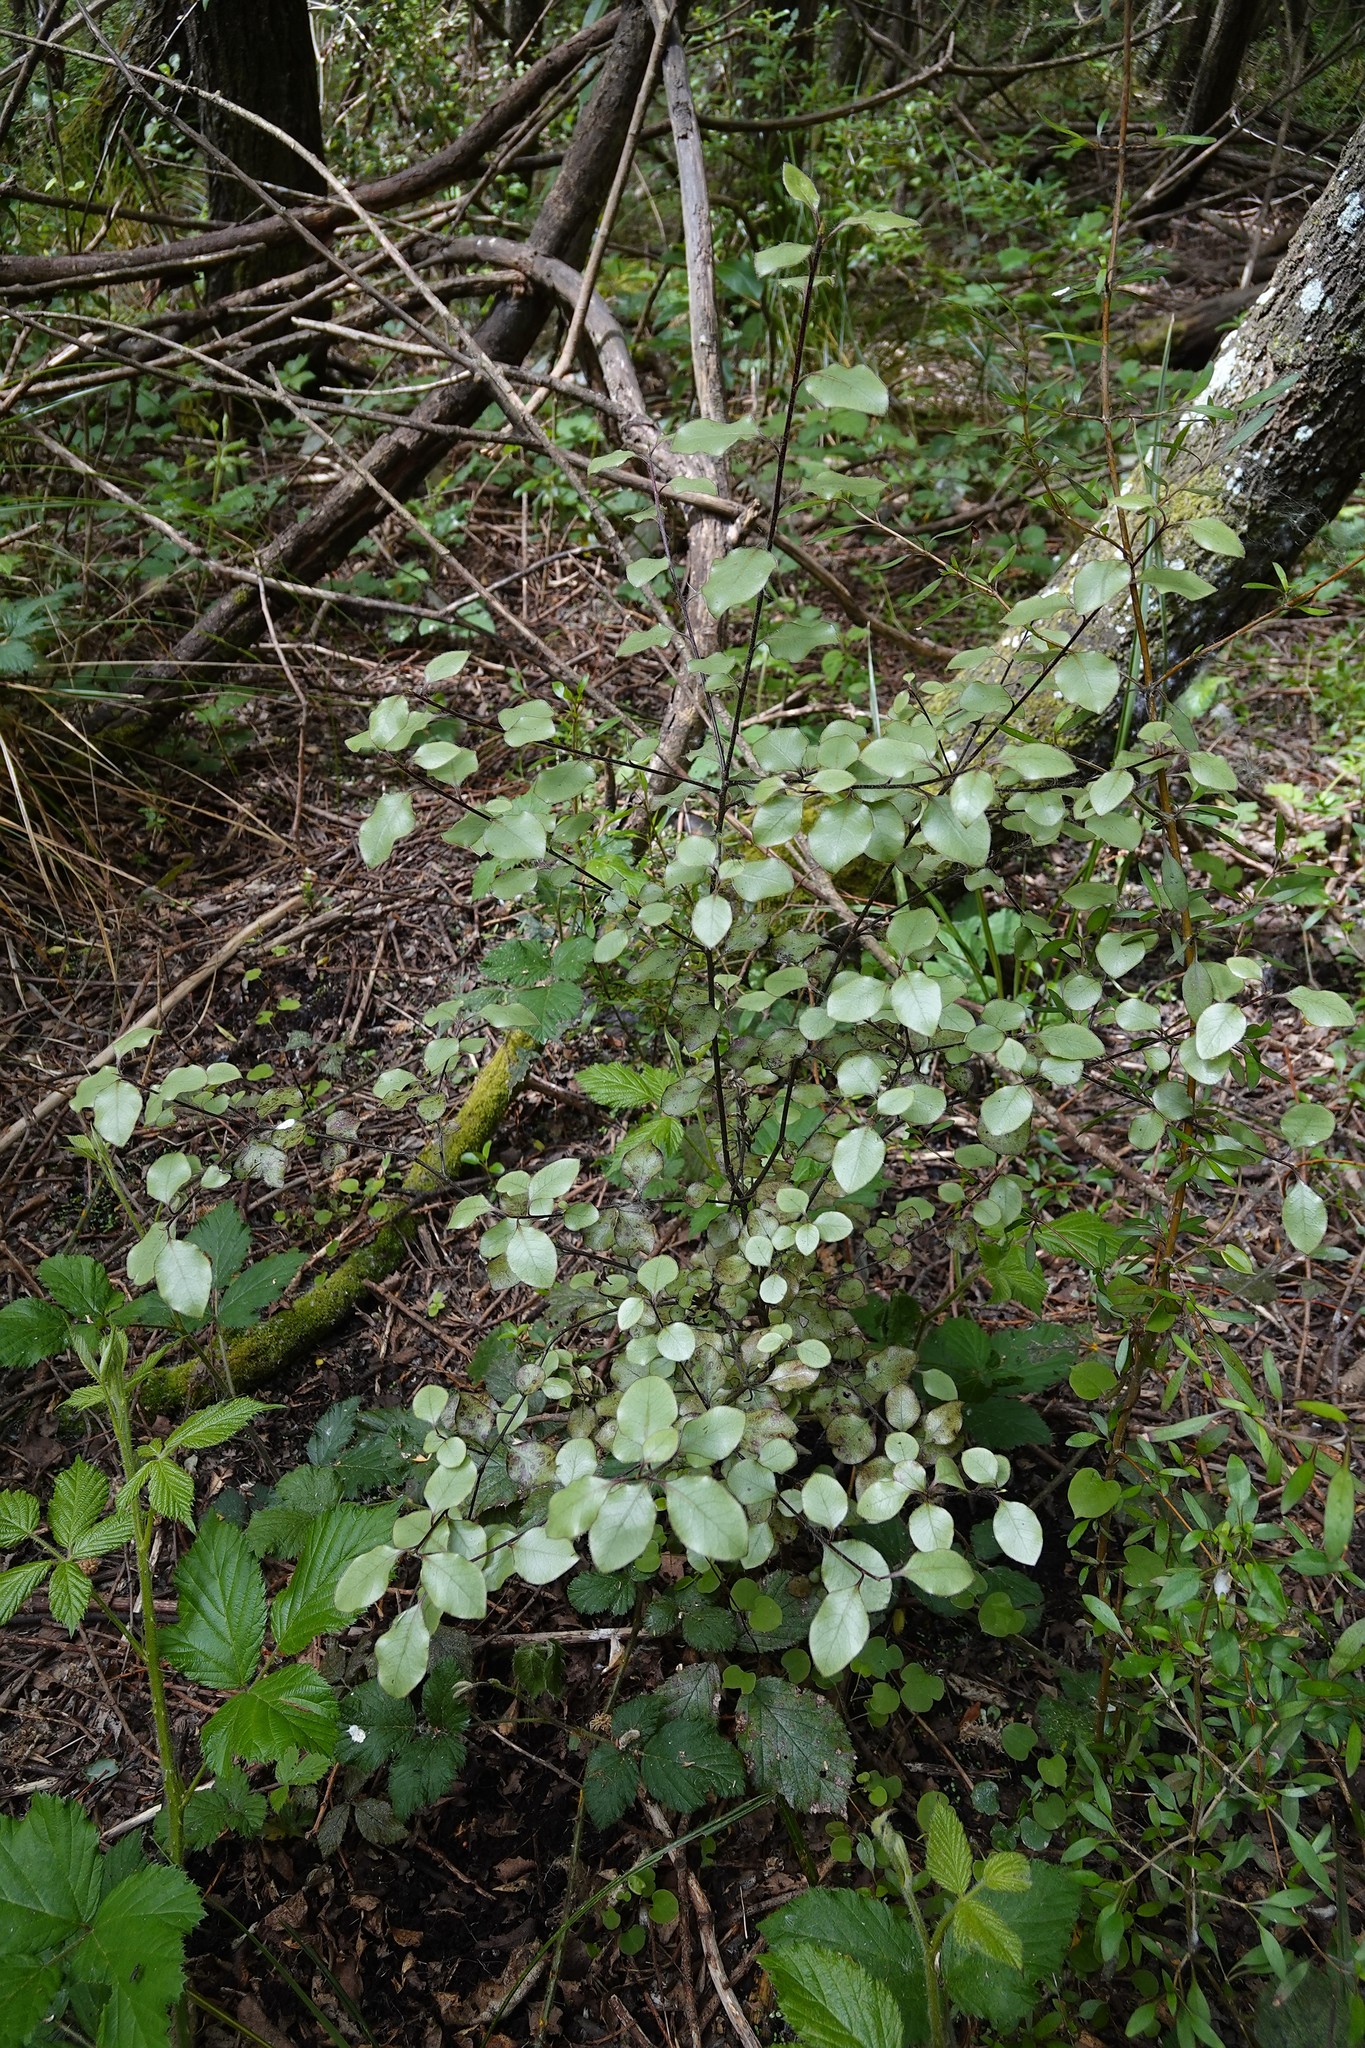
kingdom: Plantae
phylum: Tracheophyta
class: Magnoliopsida
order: Apiales
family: Pittosporaceae
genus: Pittosporum
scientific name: Pittosporum tenuifolium
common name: Kohuhu
